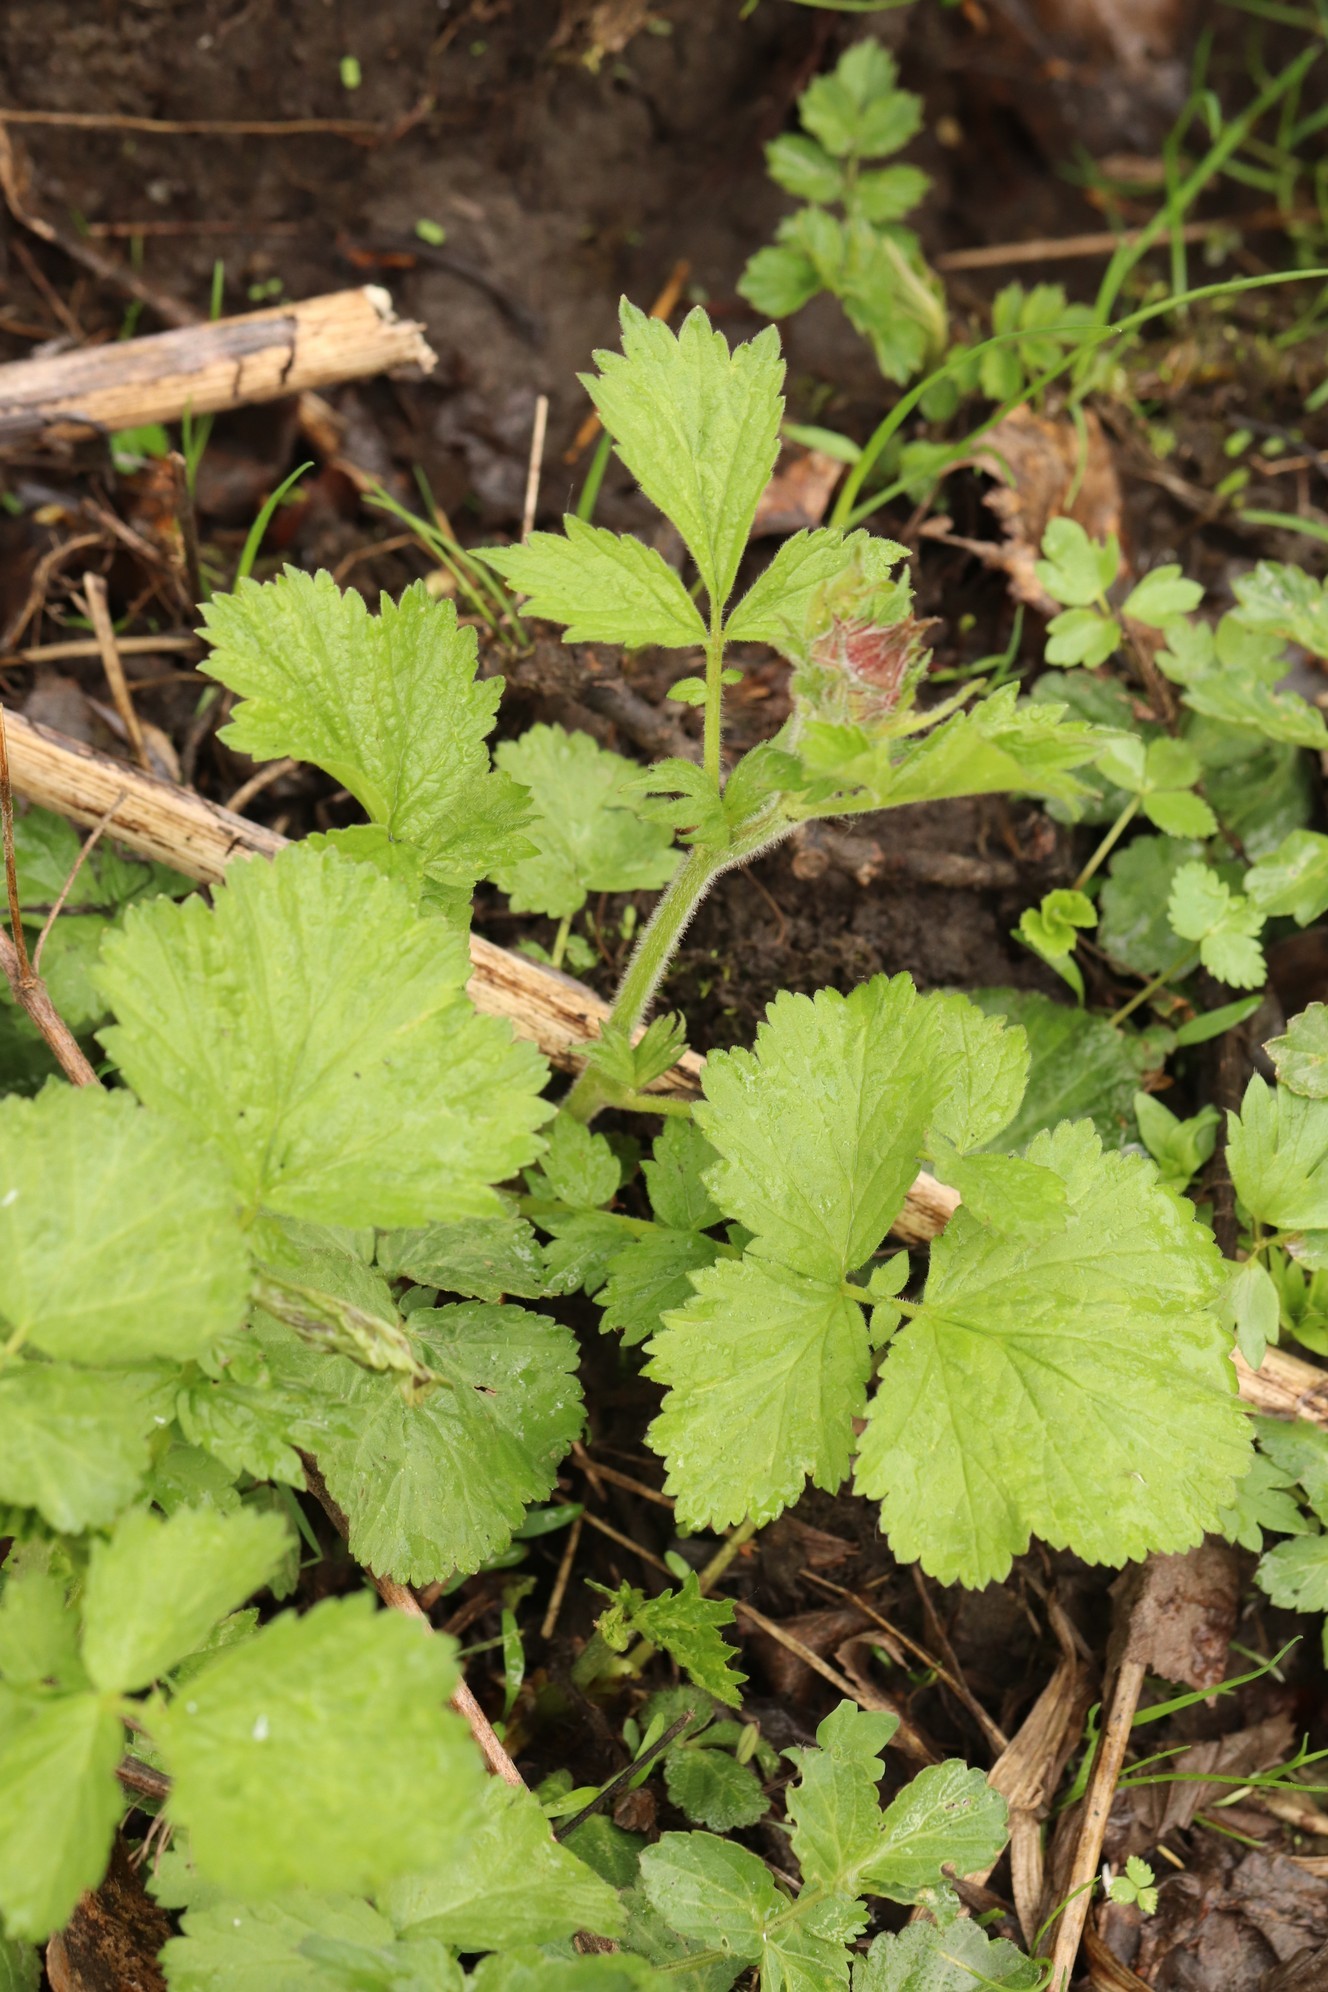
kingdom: Plantae
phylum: Tracheophyta
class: Magnoliopsida
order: Rosales
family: Rosaceae
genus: Geum
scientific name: Geum rivale
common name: Water avens
